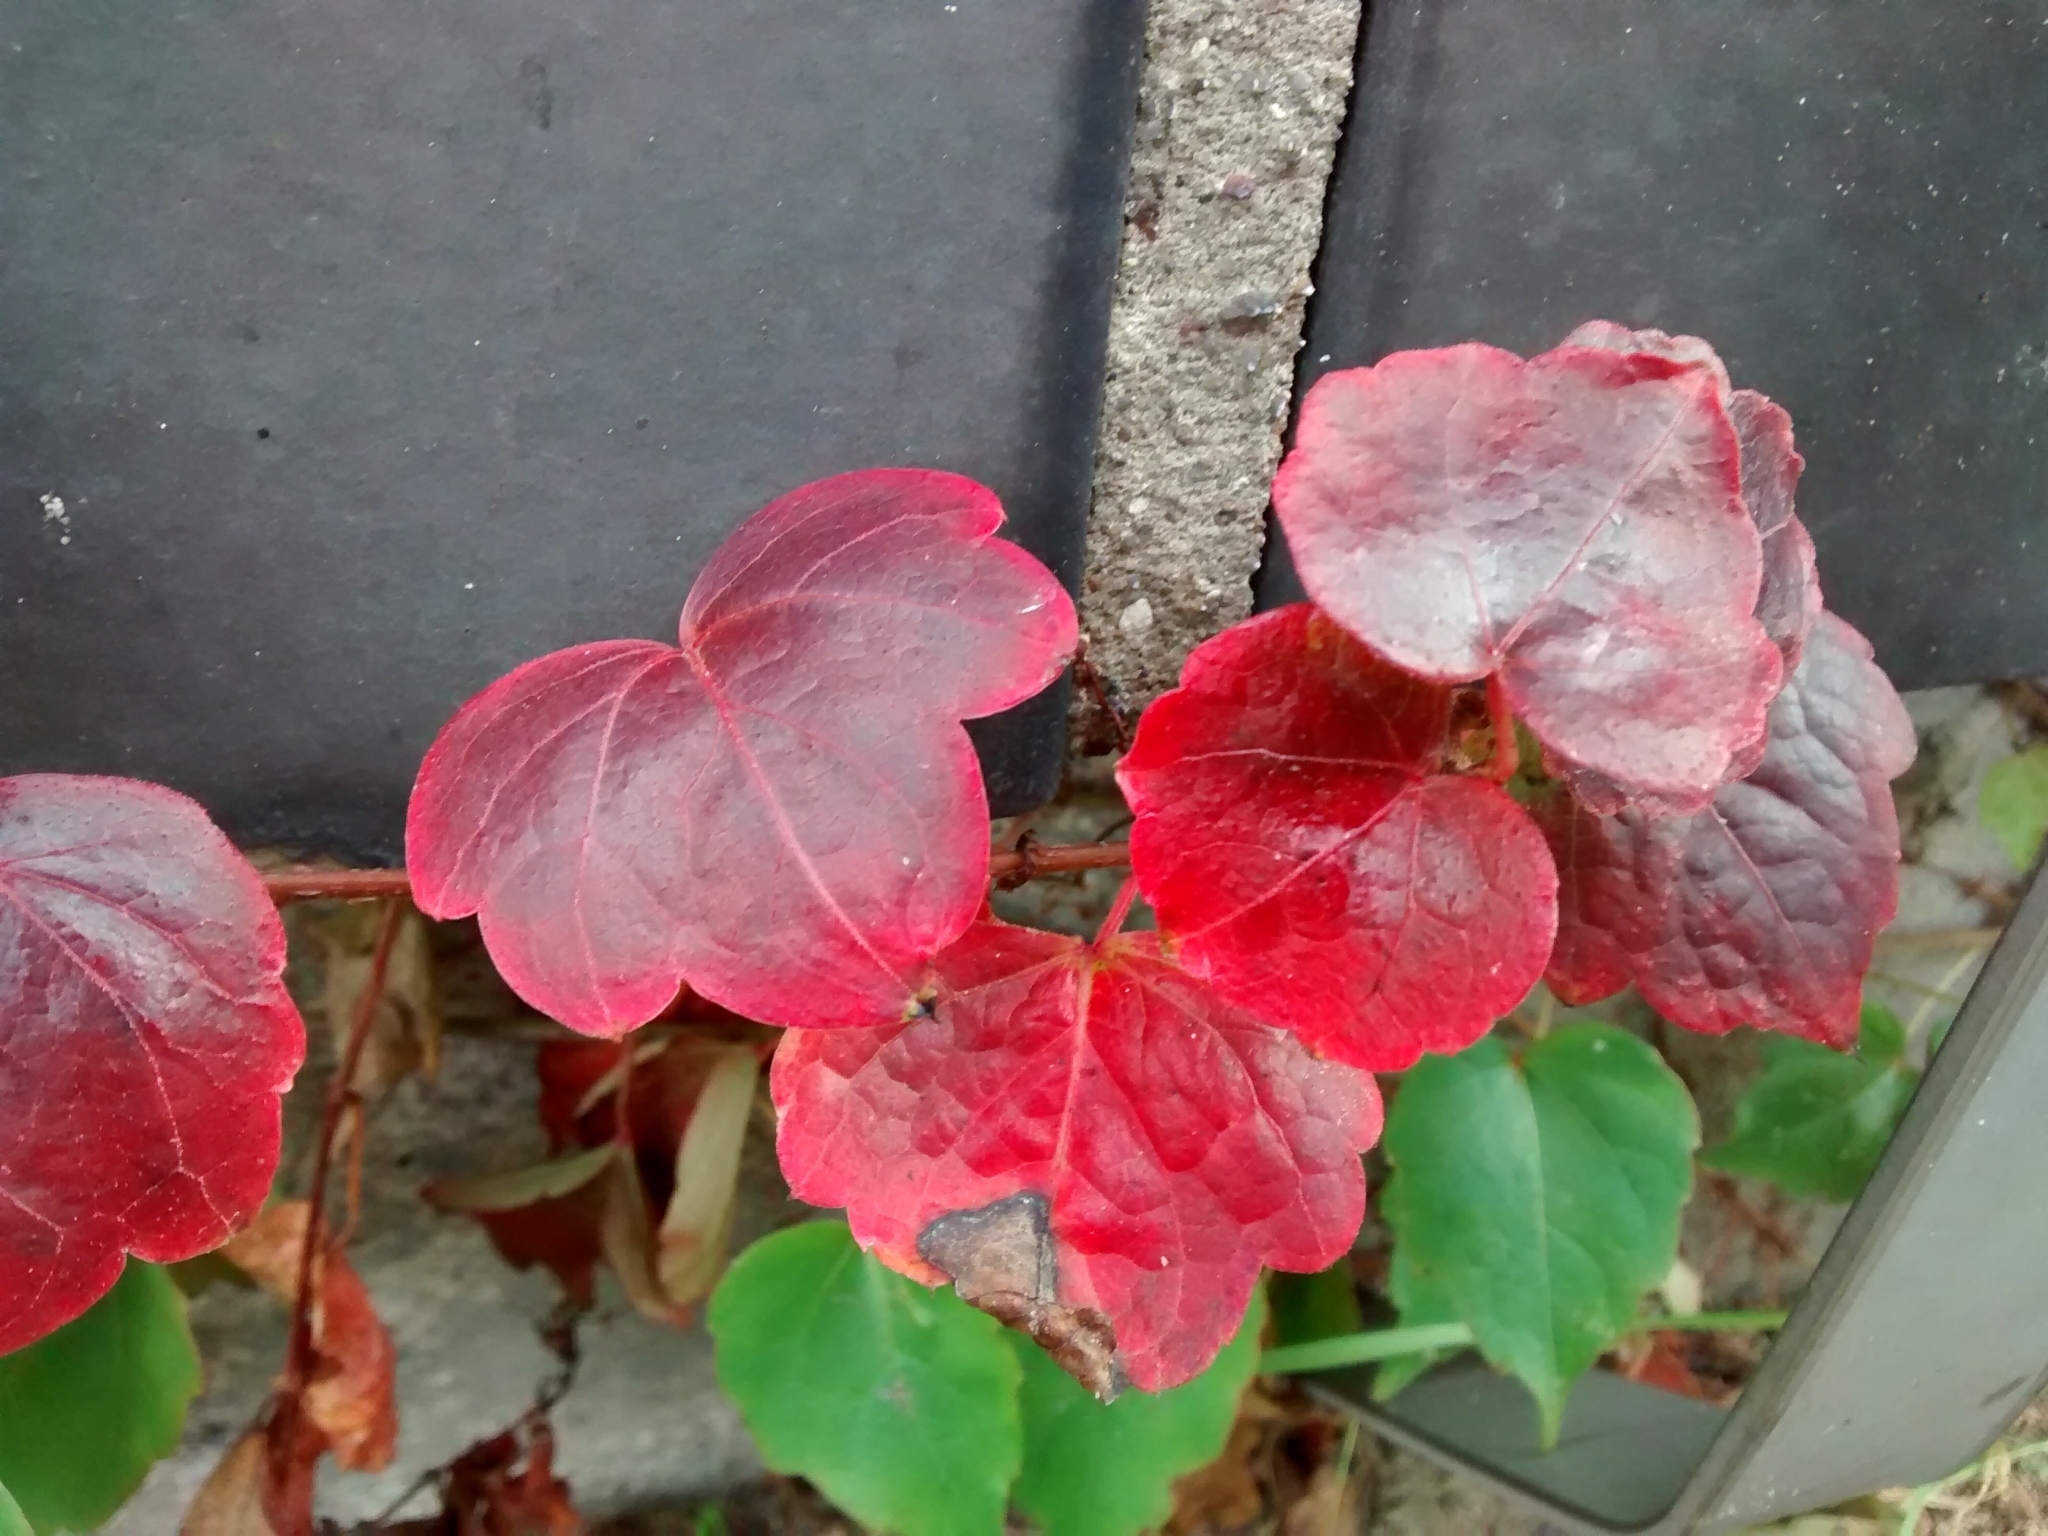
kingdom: Plantae
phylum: Tracheophyta
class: Magnoliopsida
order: Vitales
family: Vitaceae
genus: Parthenocissus
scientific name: Parthenocissus tricuspidata
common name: Boston ivy
